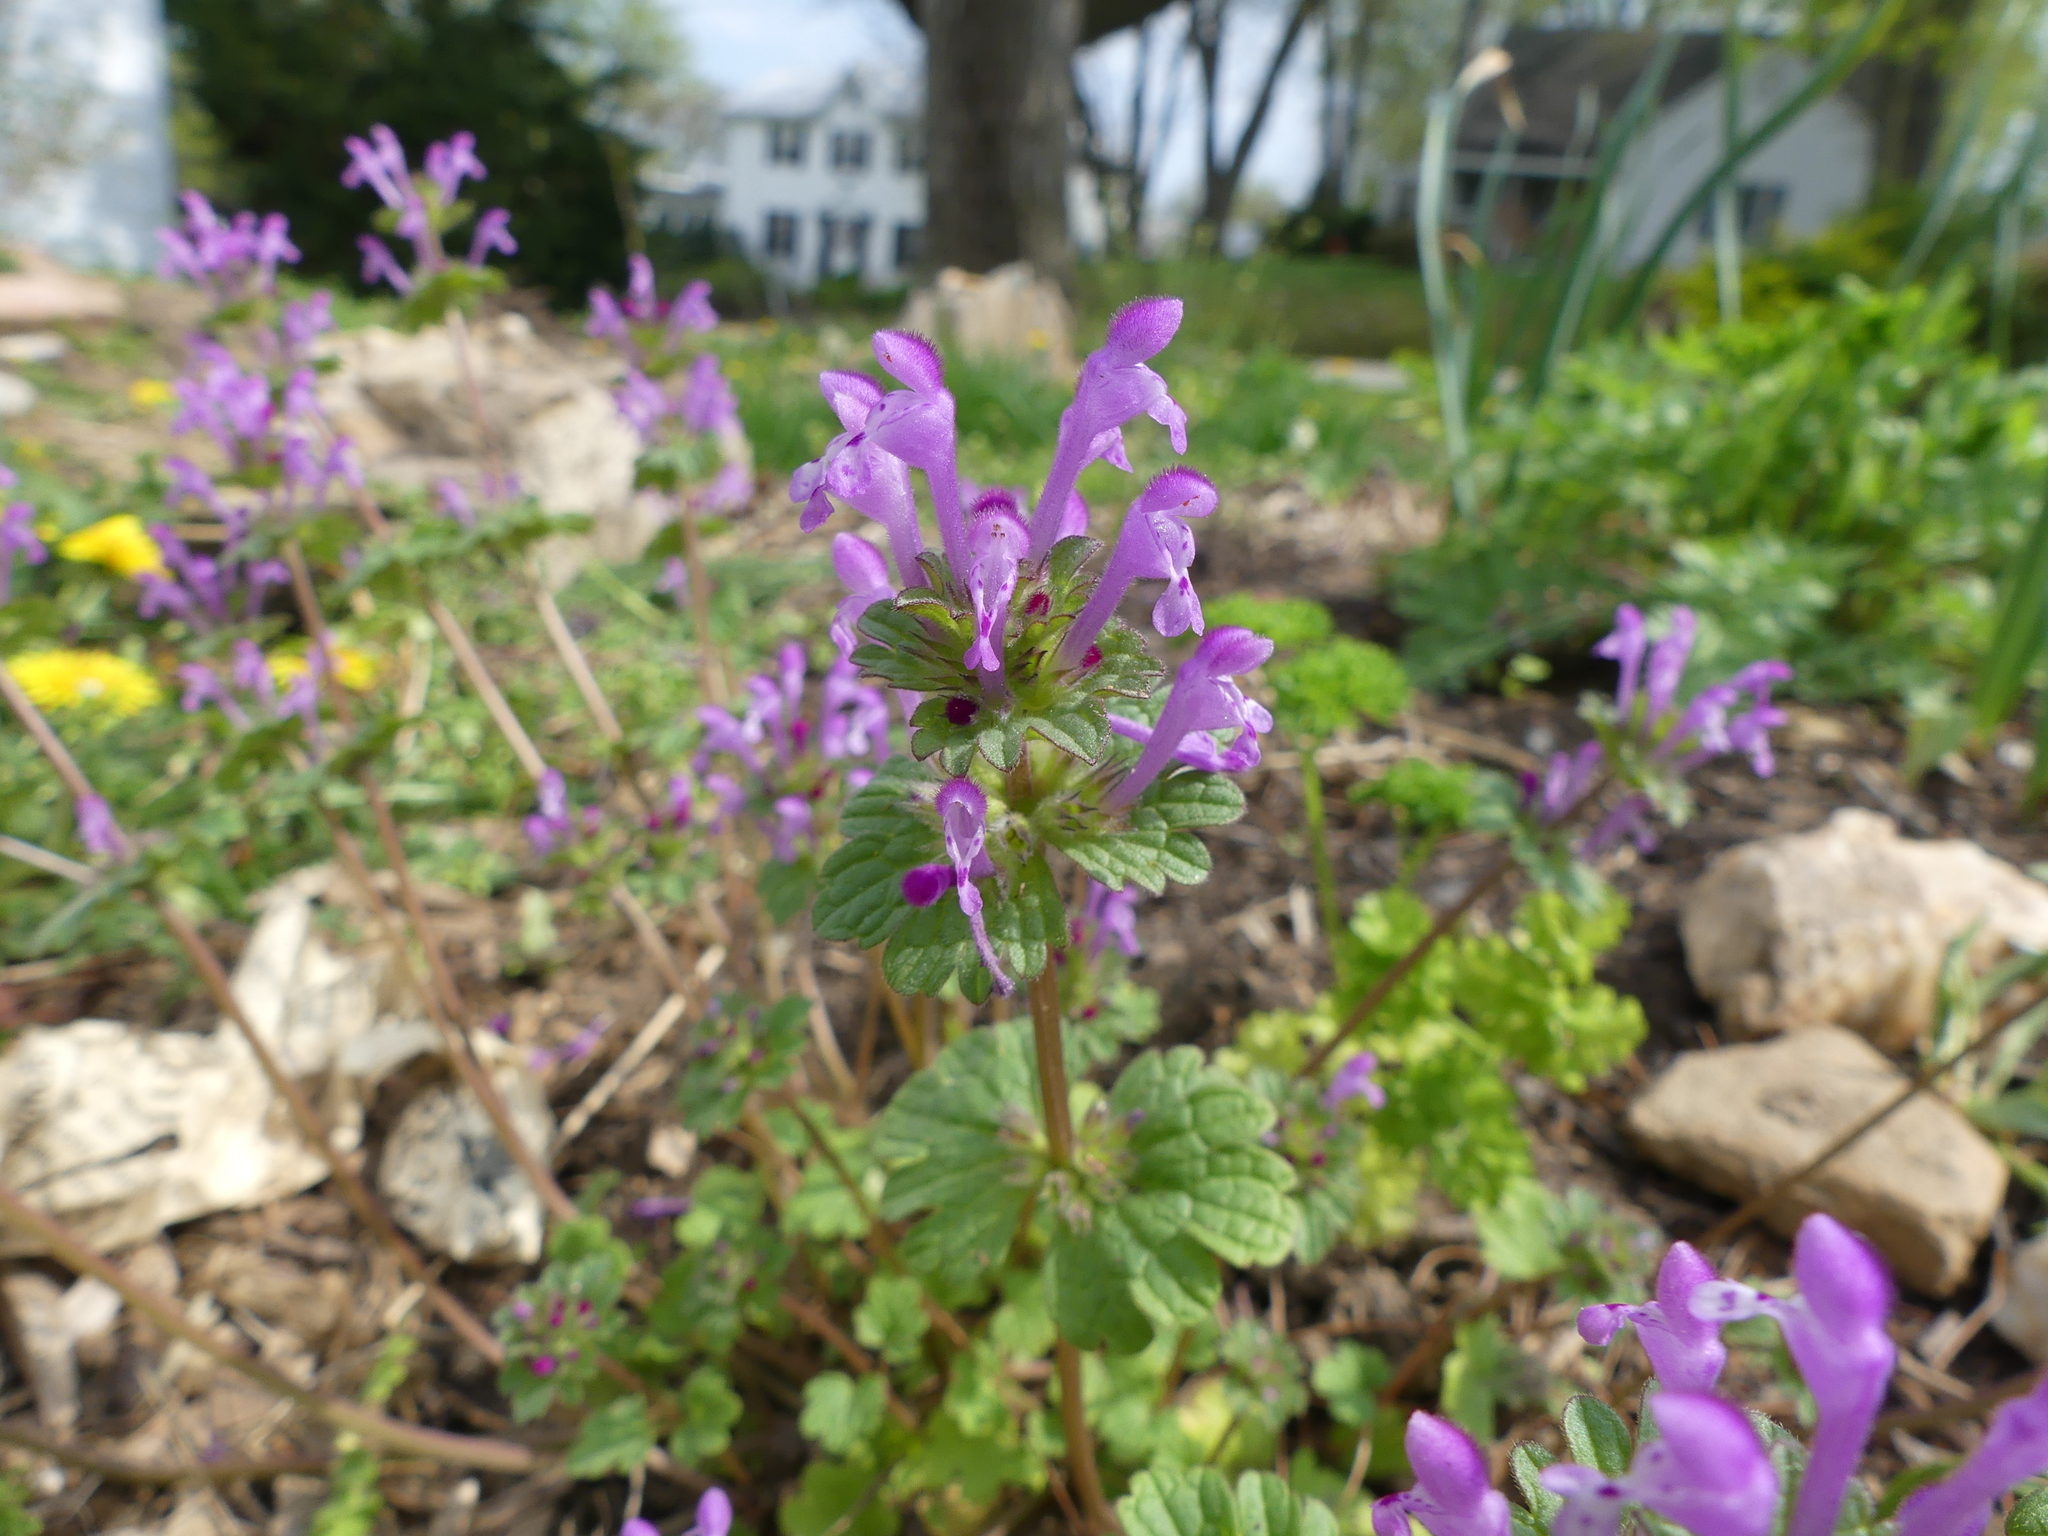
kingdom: Plantae
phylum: Tracheophyta
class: Magnoliopsida
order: Lamiales
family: Lamiaceae
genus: Lamium
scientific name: Lamium amplexicaule
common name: Henbit dead-nettle
